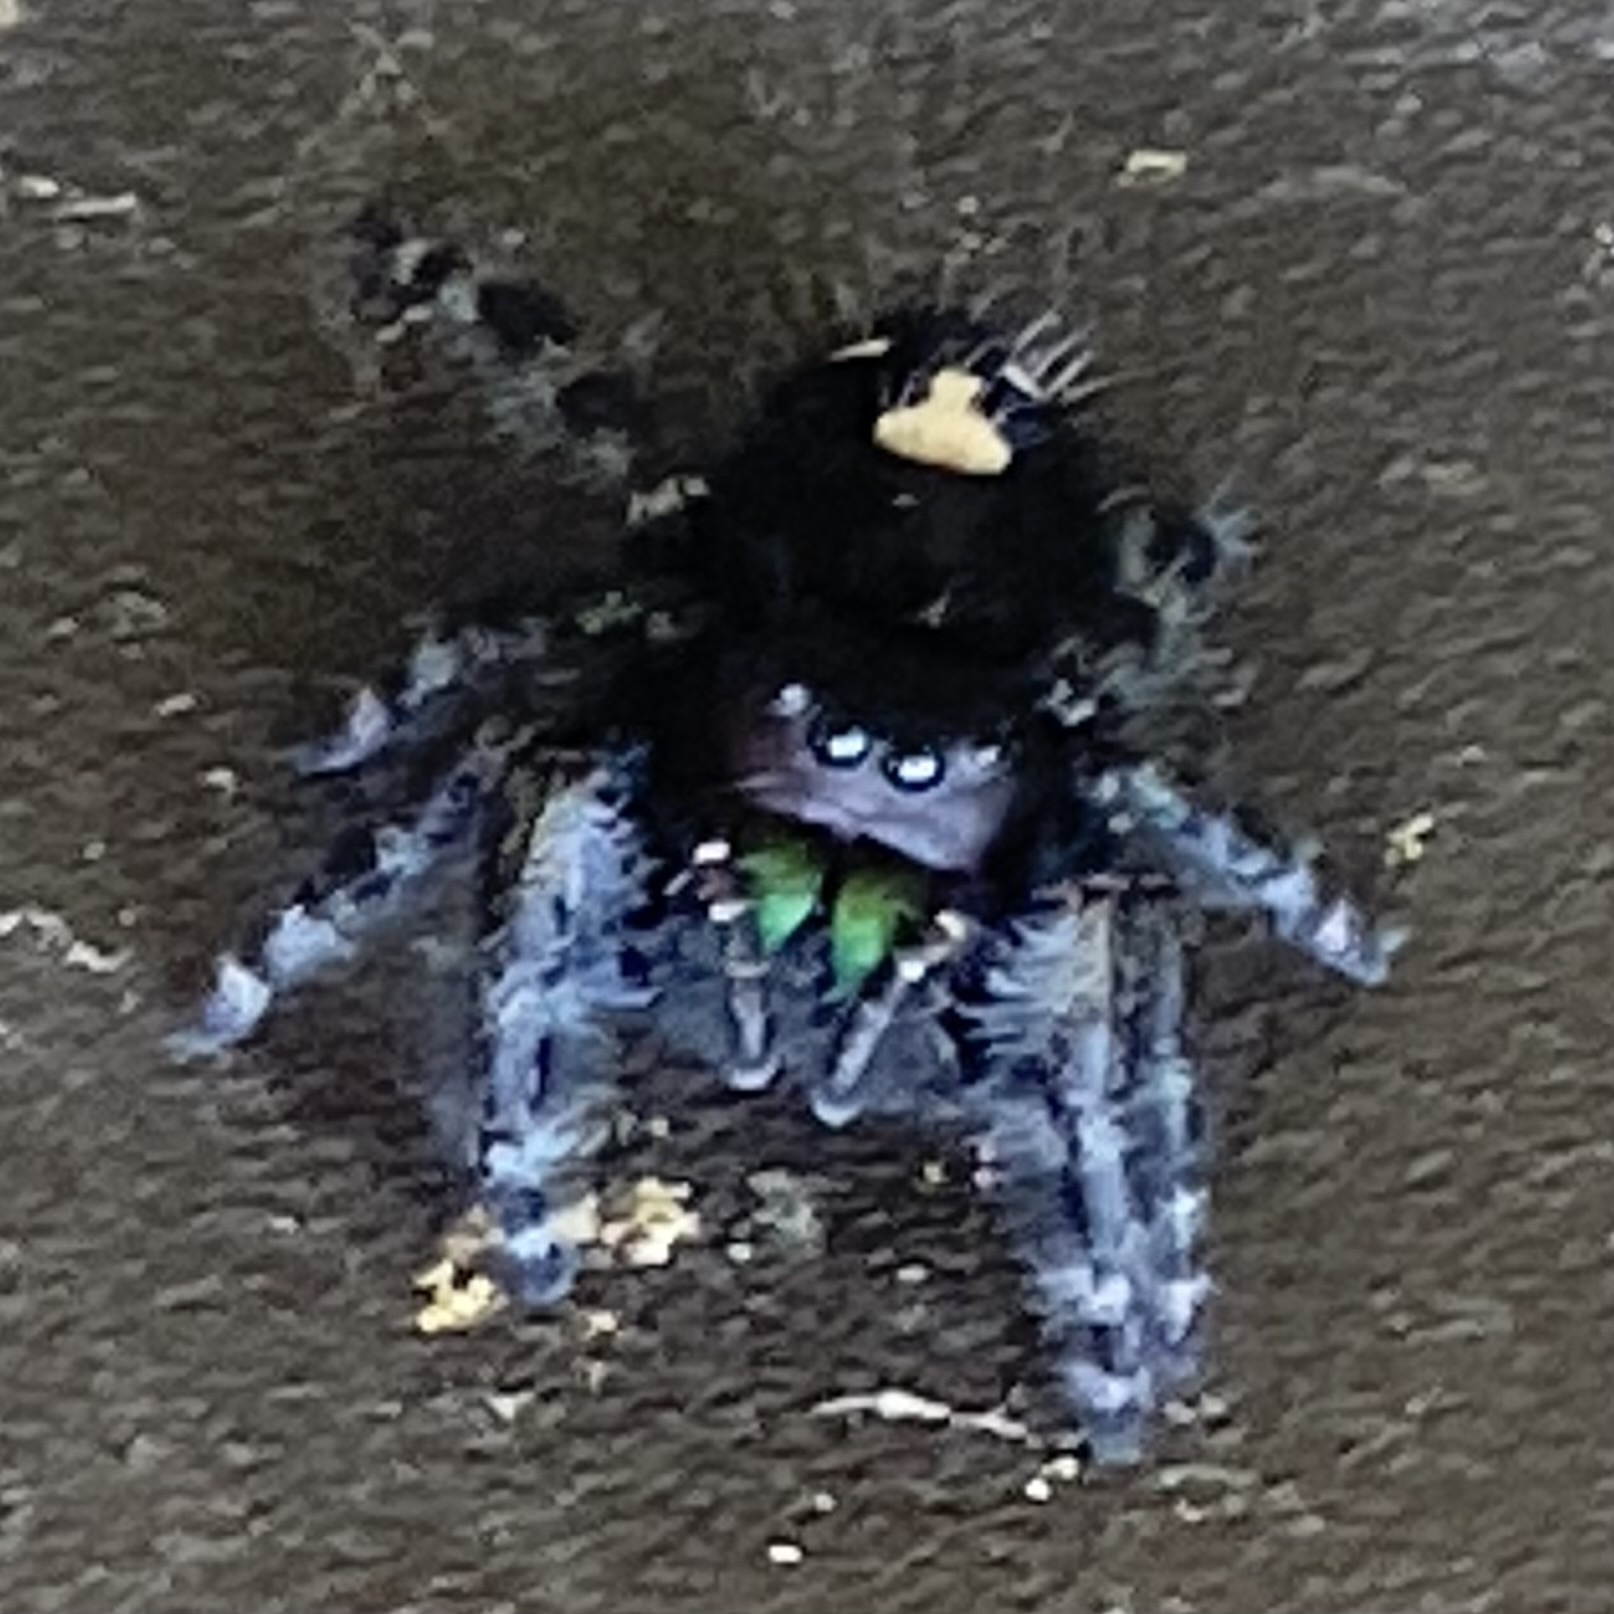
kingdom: Animalia
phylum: Arthropoda
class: Arachnida
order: Araneae
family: Salticidae
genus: Phidippus
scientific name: Phidippus audax
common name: Bold jumper
